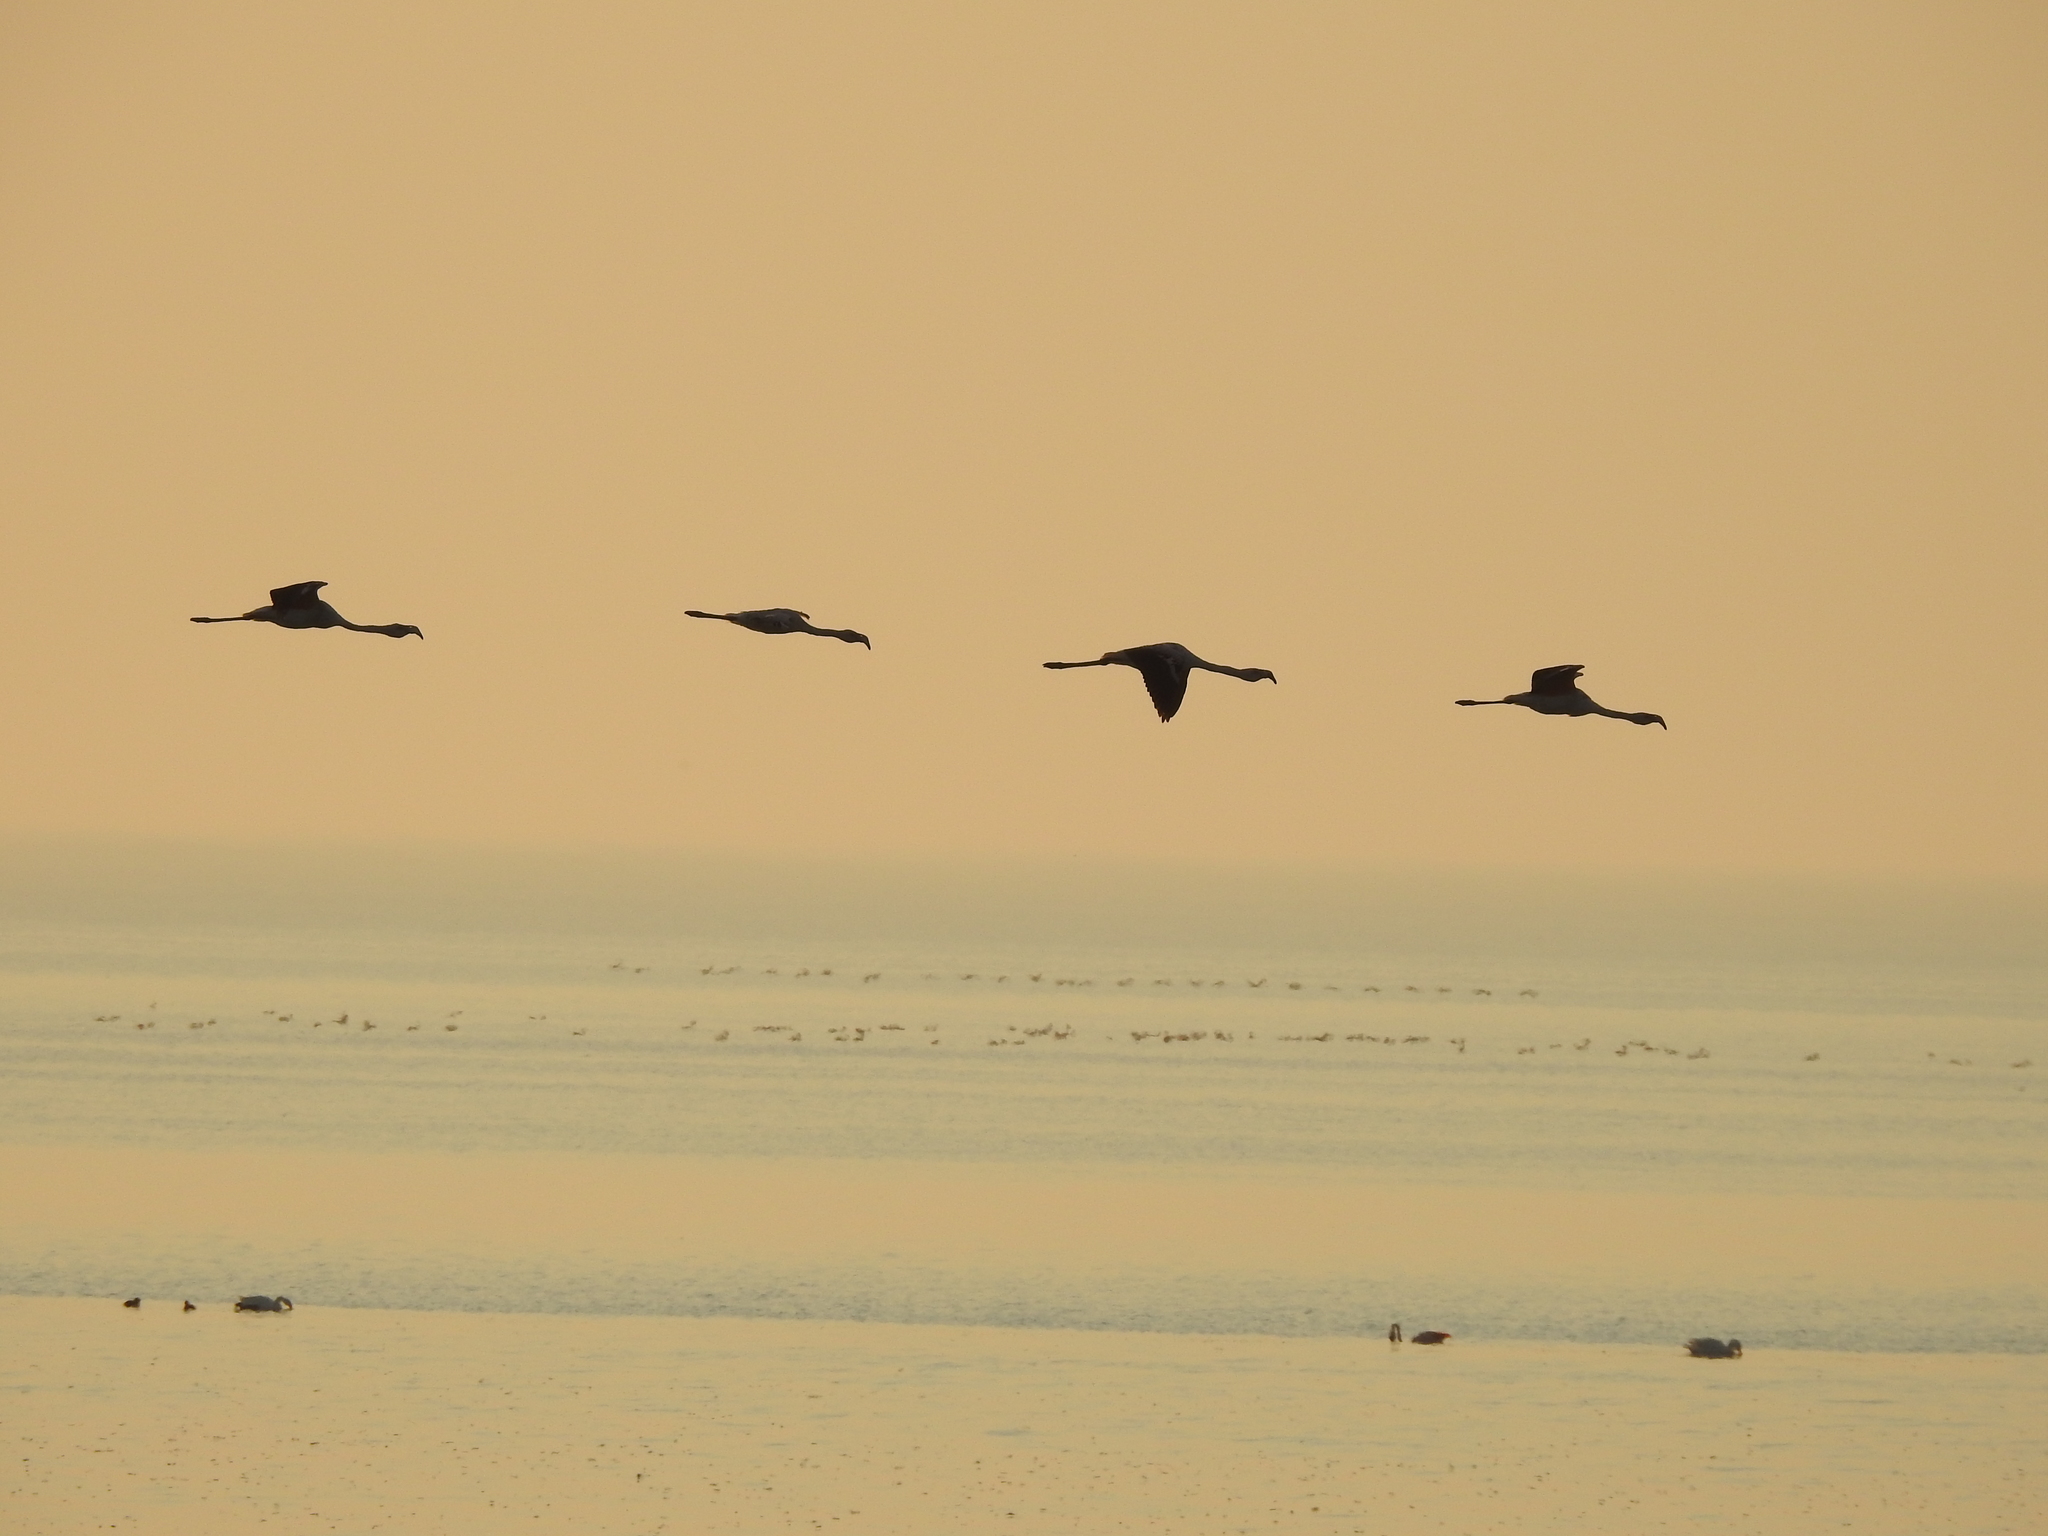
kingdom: Animalia
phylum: Chordata
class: Aves
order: Phoenicopteriformes
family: Phoenicopteridae
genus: Phoenicopterus
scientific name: Phoenicopterus chilensis
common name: Chilean flamingo
